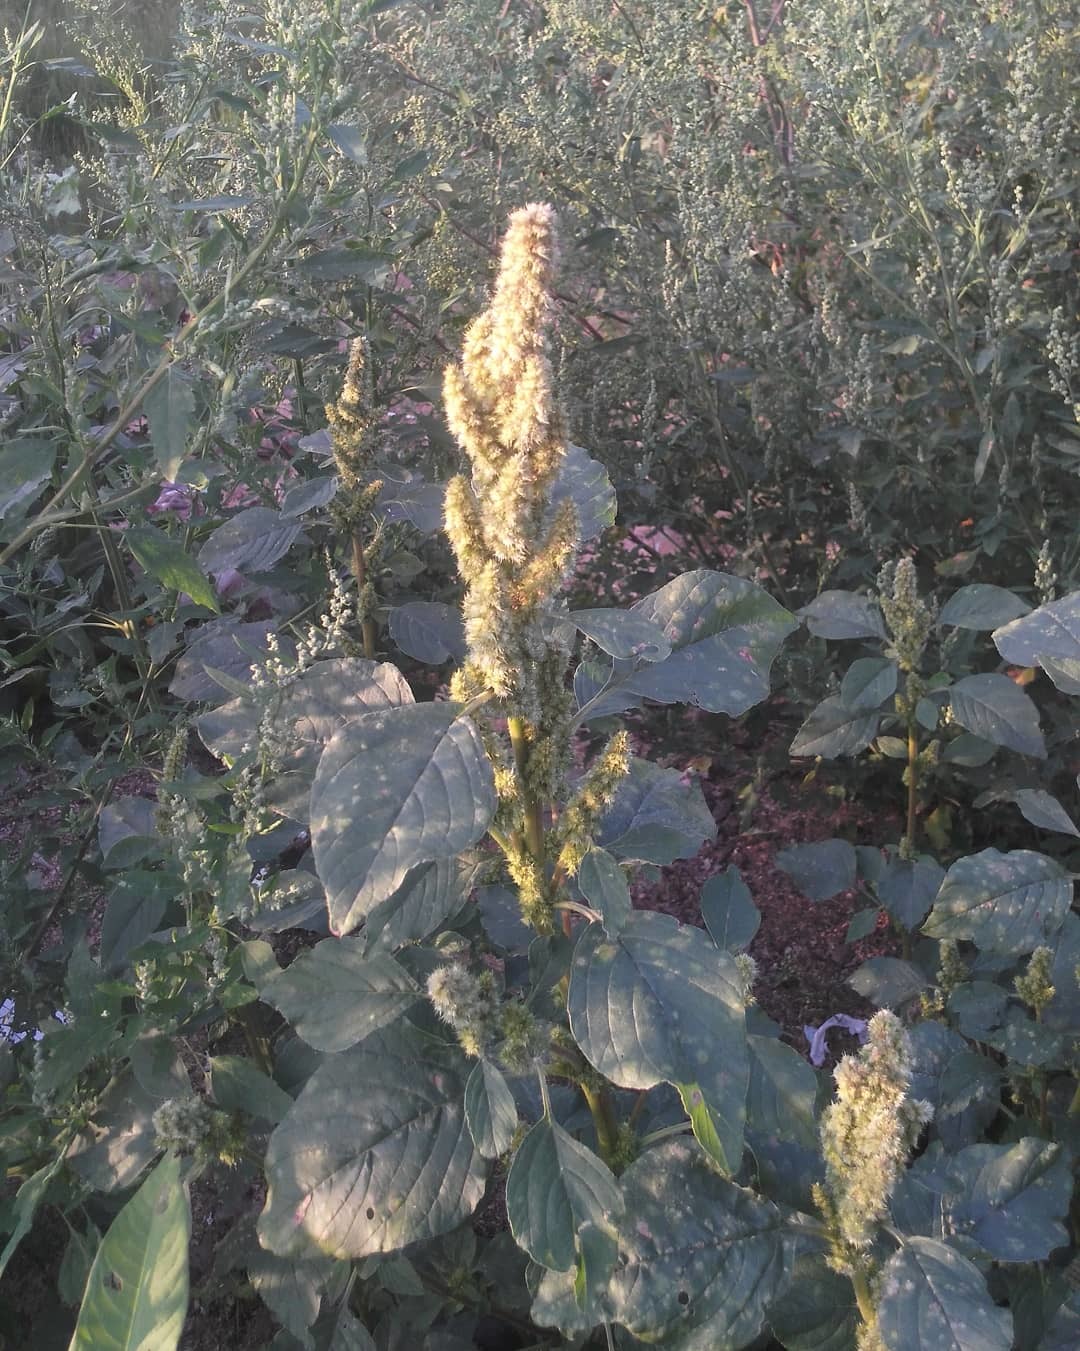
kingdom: Plantae
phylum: Tracheophyta
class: Magnoliopsida
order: Caryophyllales
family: Amaranthaceae
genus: Amaranthus
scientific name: Amaranthus retroflexus
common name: Redroot amaranth
